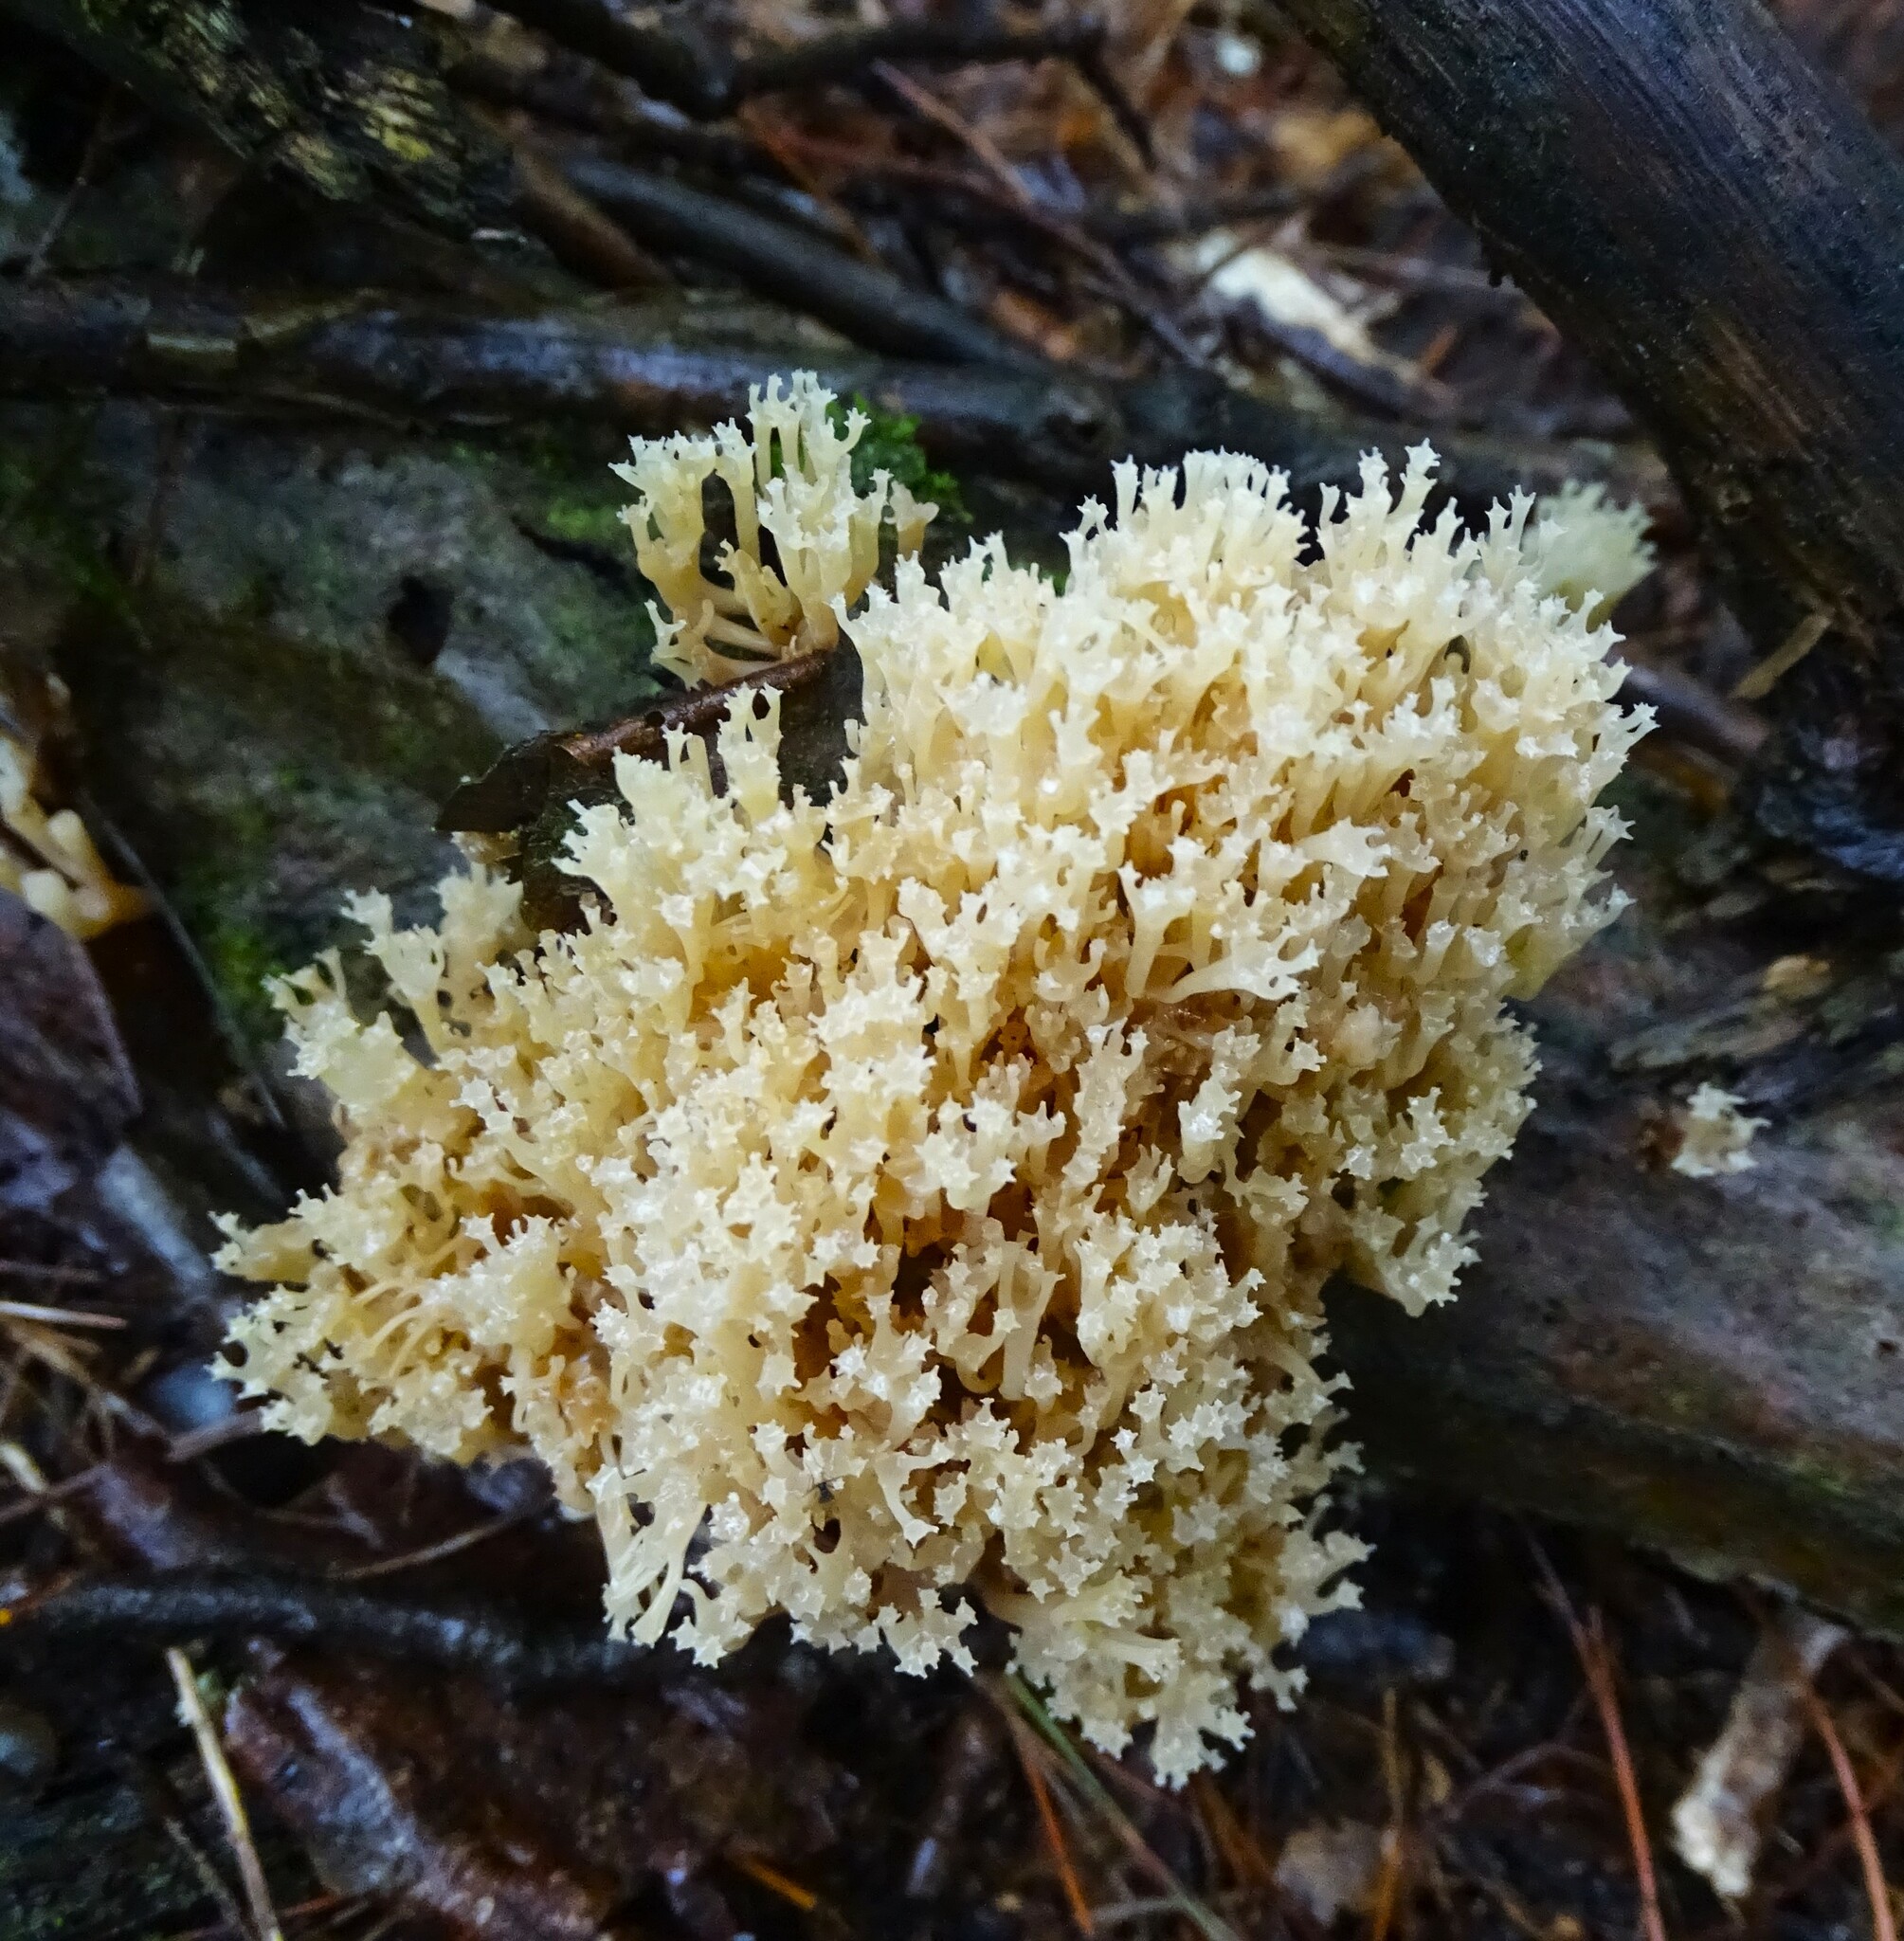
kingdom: Fungi
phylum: Basidiomycota
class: Agaricomycetes
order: Russulales
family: Auriscalpiaceae
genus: Artomyces
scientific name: Artomyces pyxidatus
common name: Crown-tipped coral fungus
